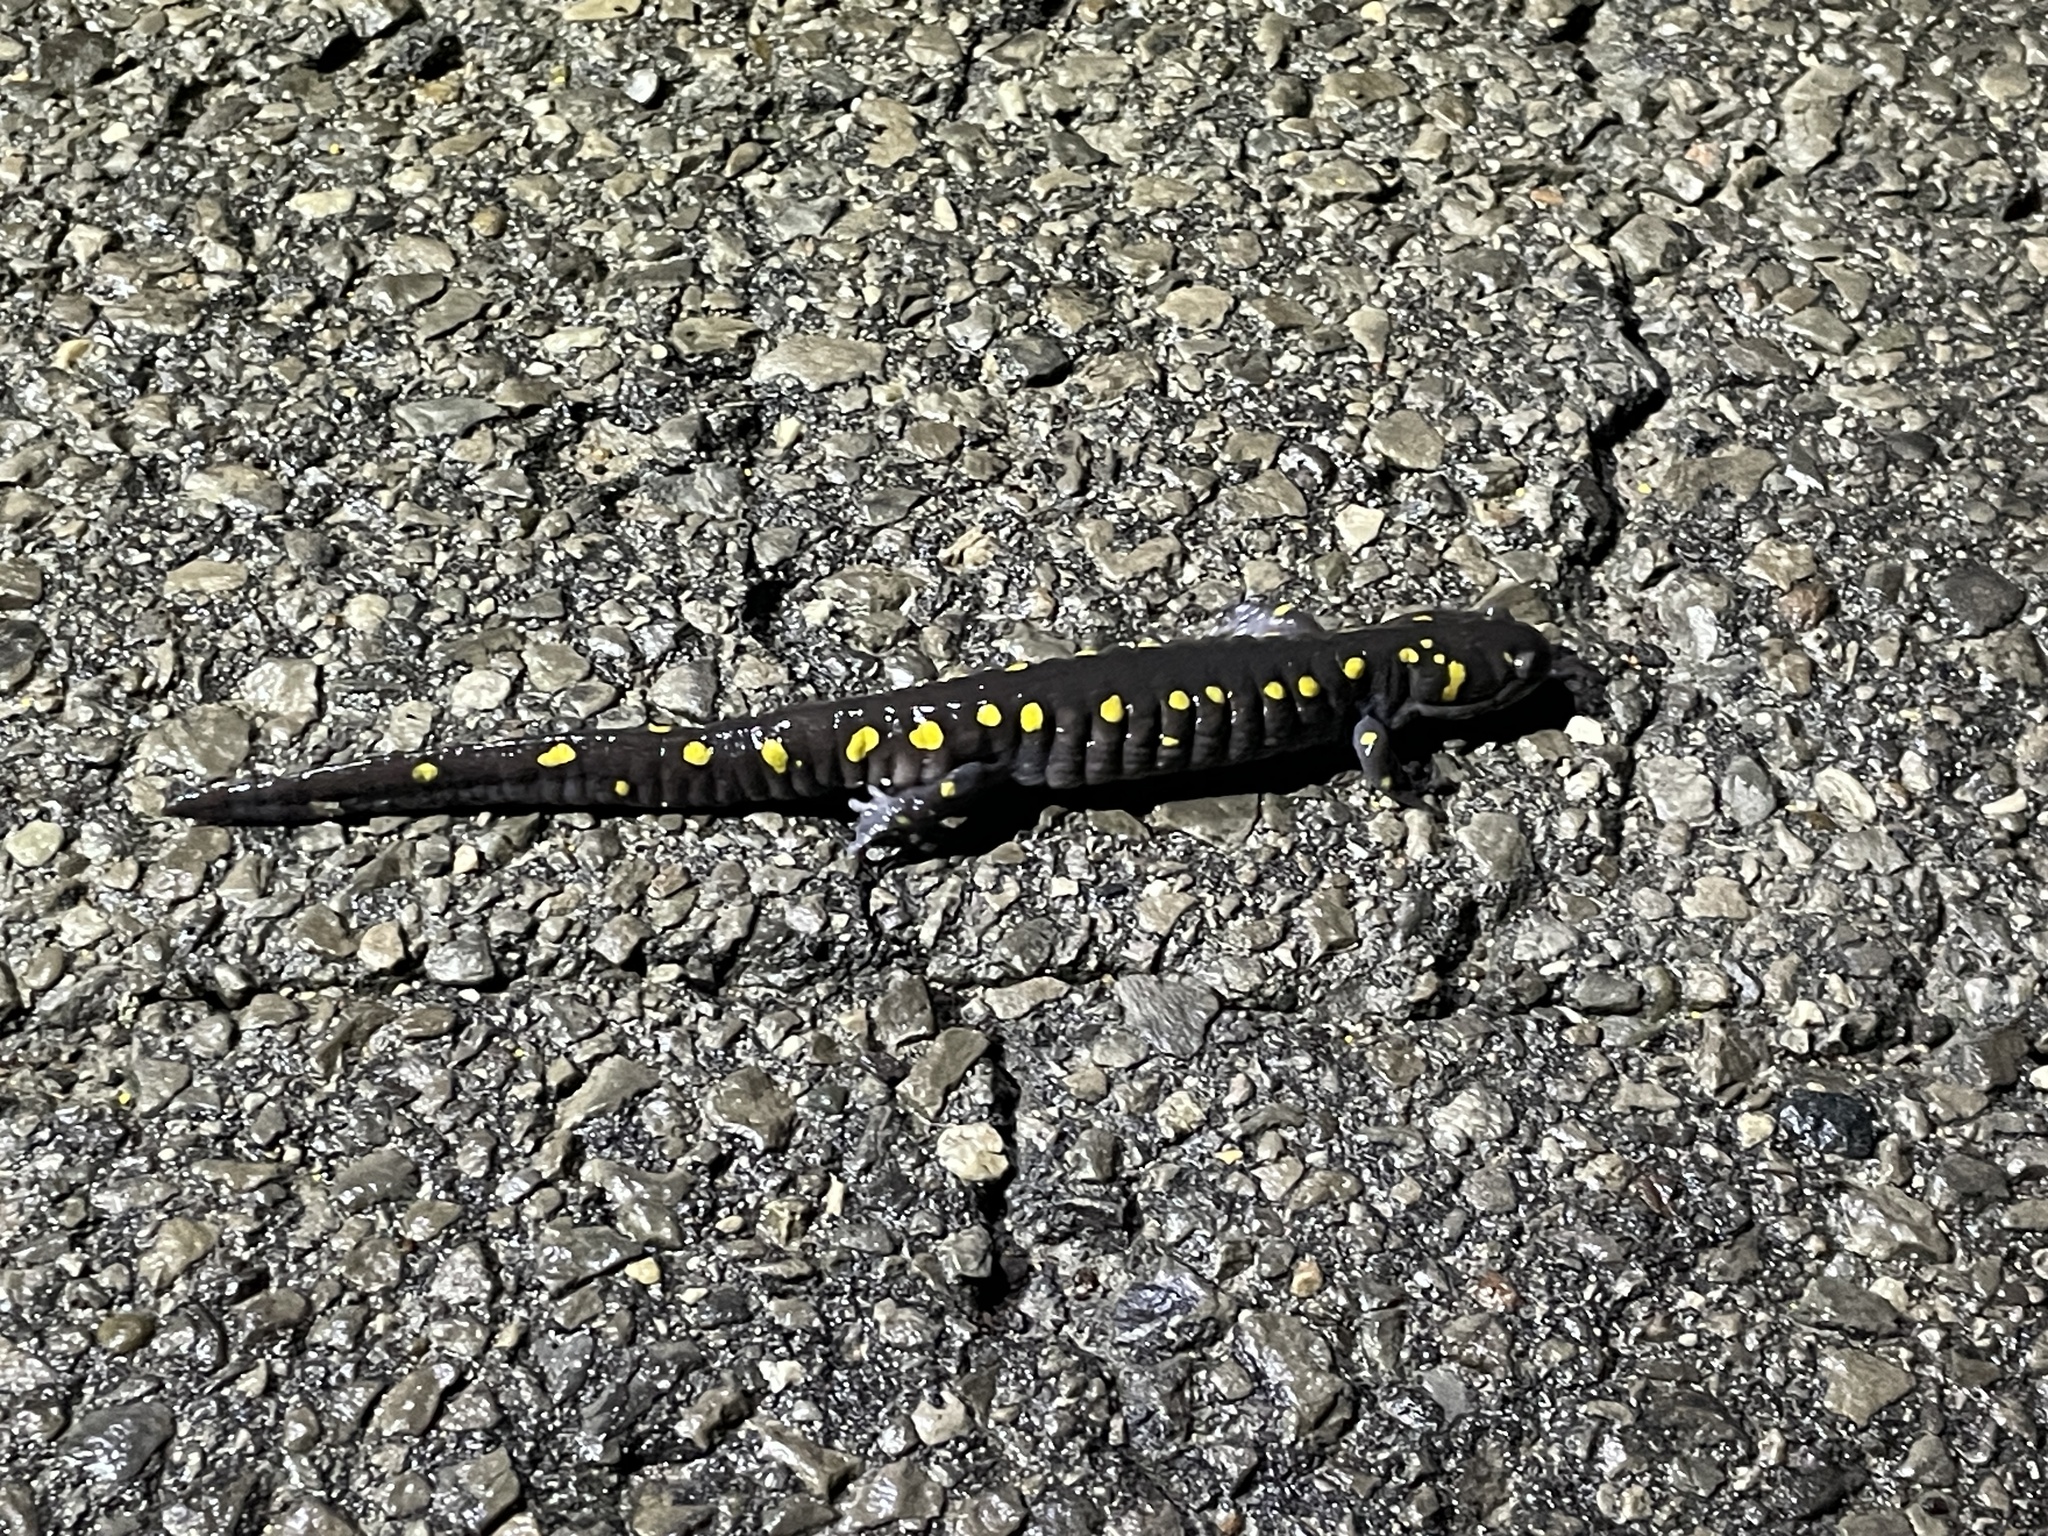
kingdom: Animalia
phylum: Chordata
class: Amphibia
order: Caudata
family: Ambystomatidae
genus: Ambystoma
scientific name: Ambystoma maculatum
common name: Spotted salamander
